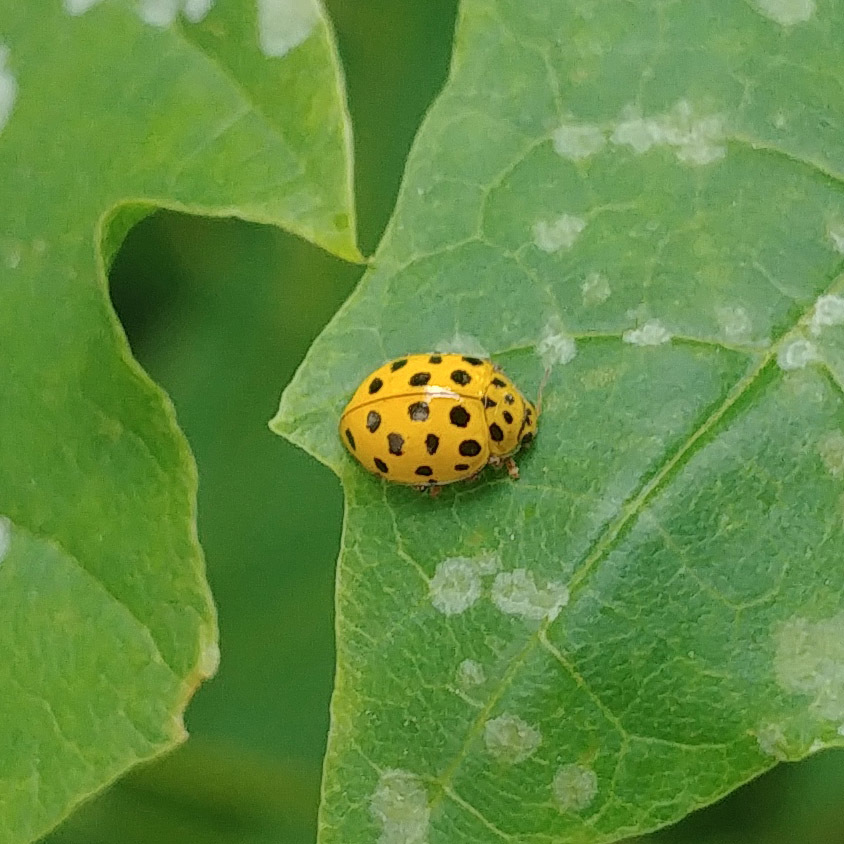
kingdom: Animalia
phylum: Arthropoda
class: Insecta
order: Coleoptera
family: Coccinellidae
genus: Psyllobora
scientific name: Psyllobora vigintiduopunctata
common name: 22-spot ladybird
